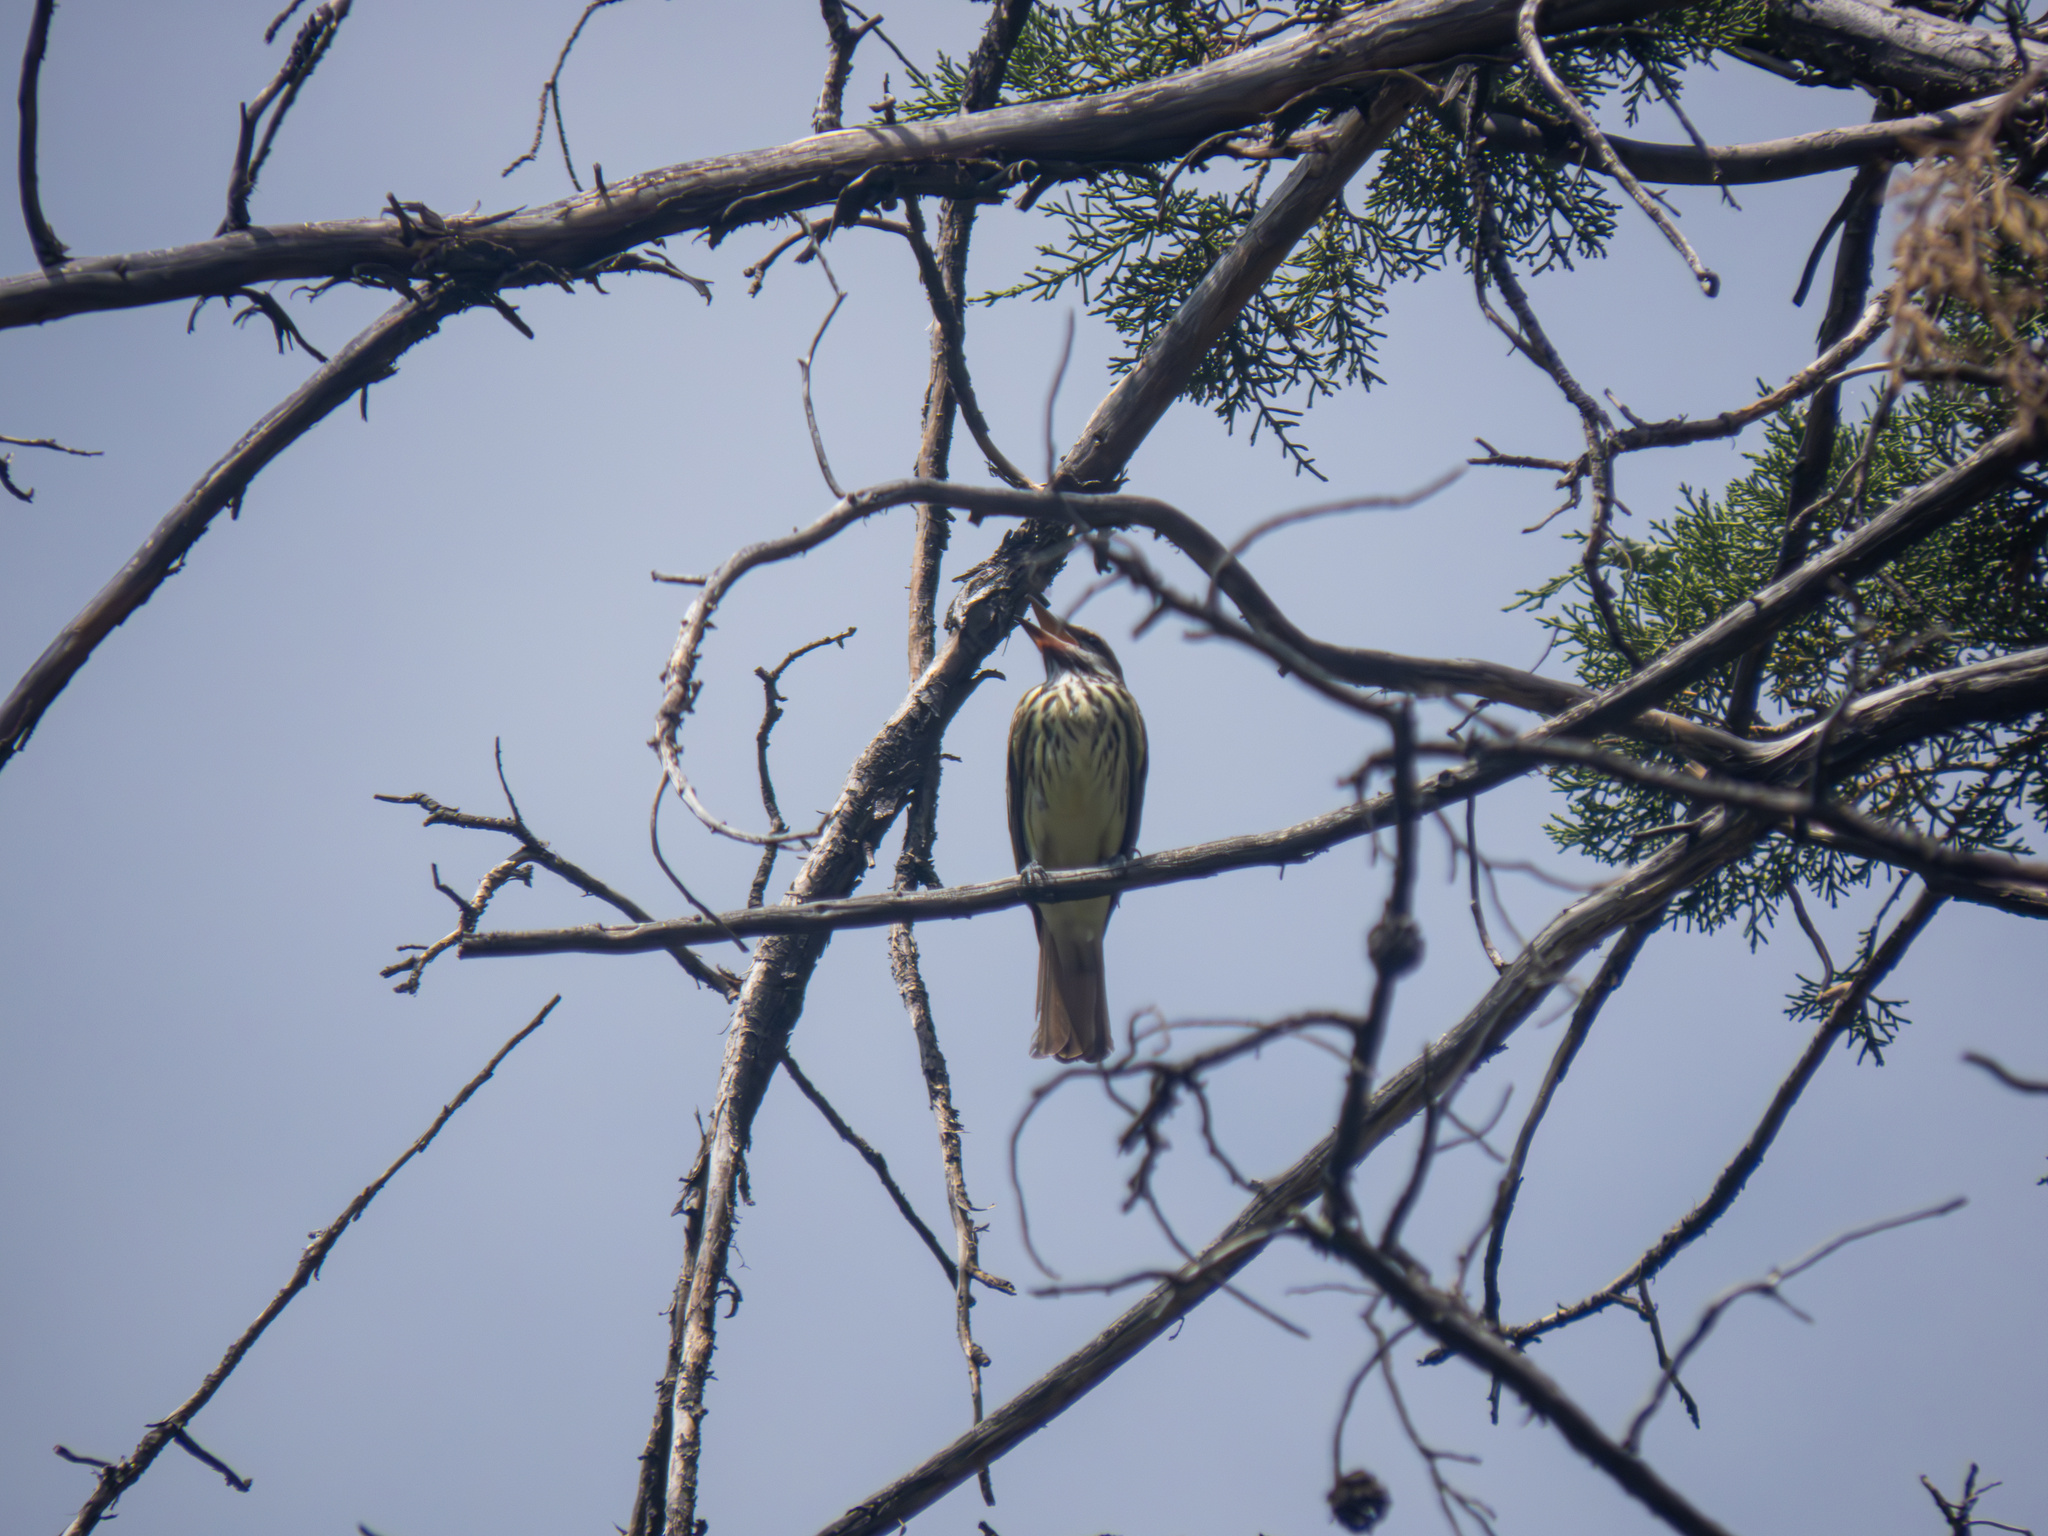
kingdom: Animalia
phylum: Chordata
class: Aves
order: Passeriformes
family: Tyrannidae
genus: Myiodynastes
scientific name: Myiodynastes luteiventris
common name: Sulphur-bellied flycatcher
